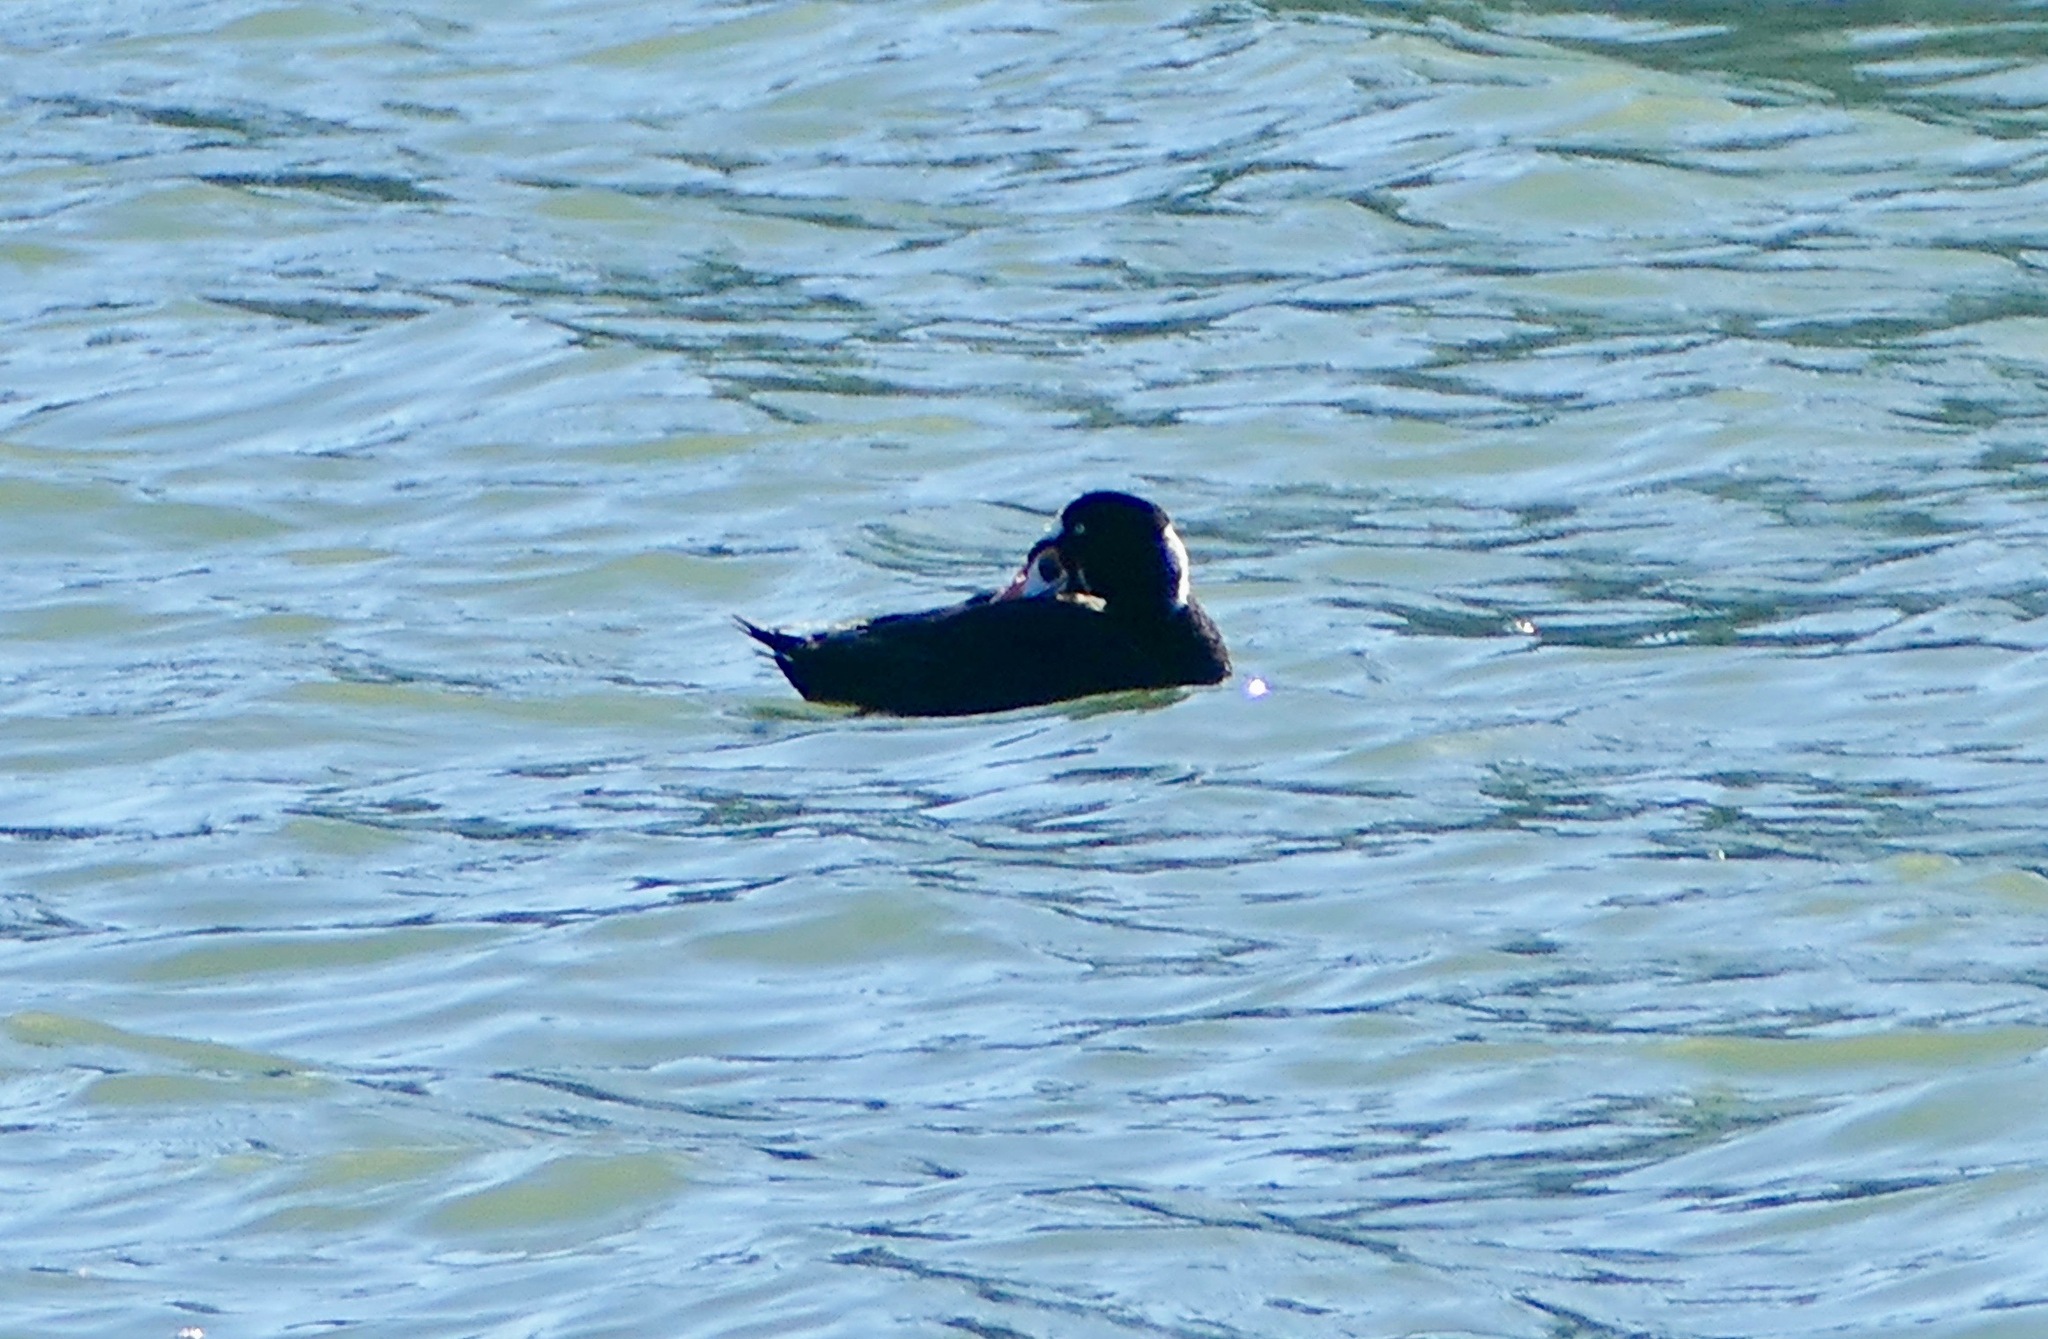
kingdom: Animalia
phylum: Chordata
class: Aves
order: Anseriformes
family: Anatidae
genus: Melanitta
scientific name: Melanitta perspicillata
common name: Surf scoter
